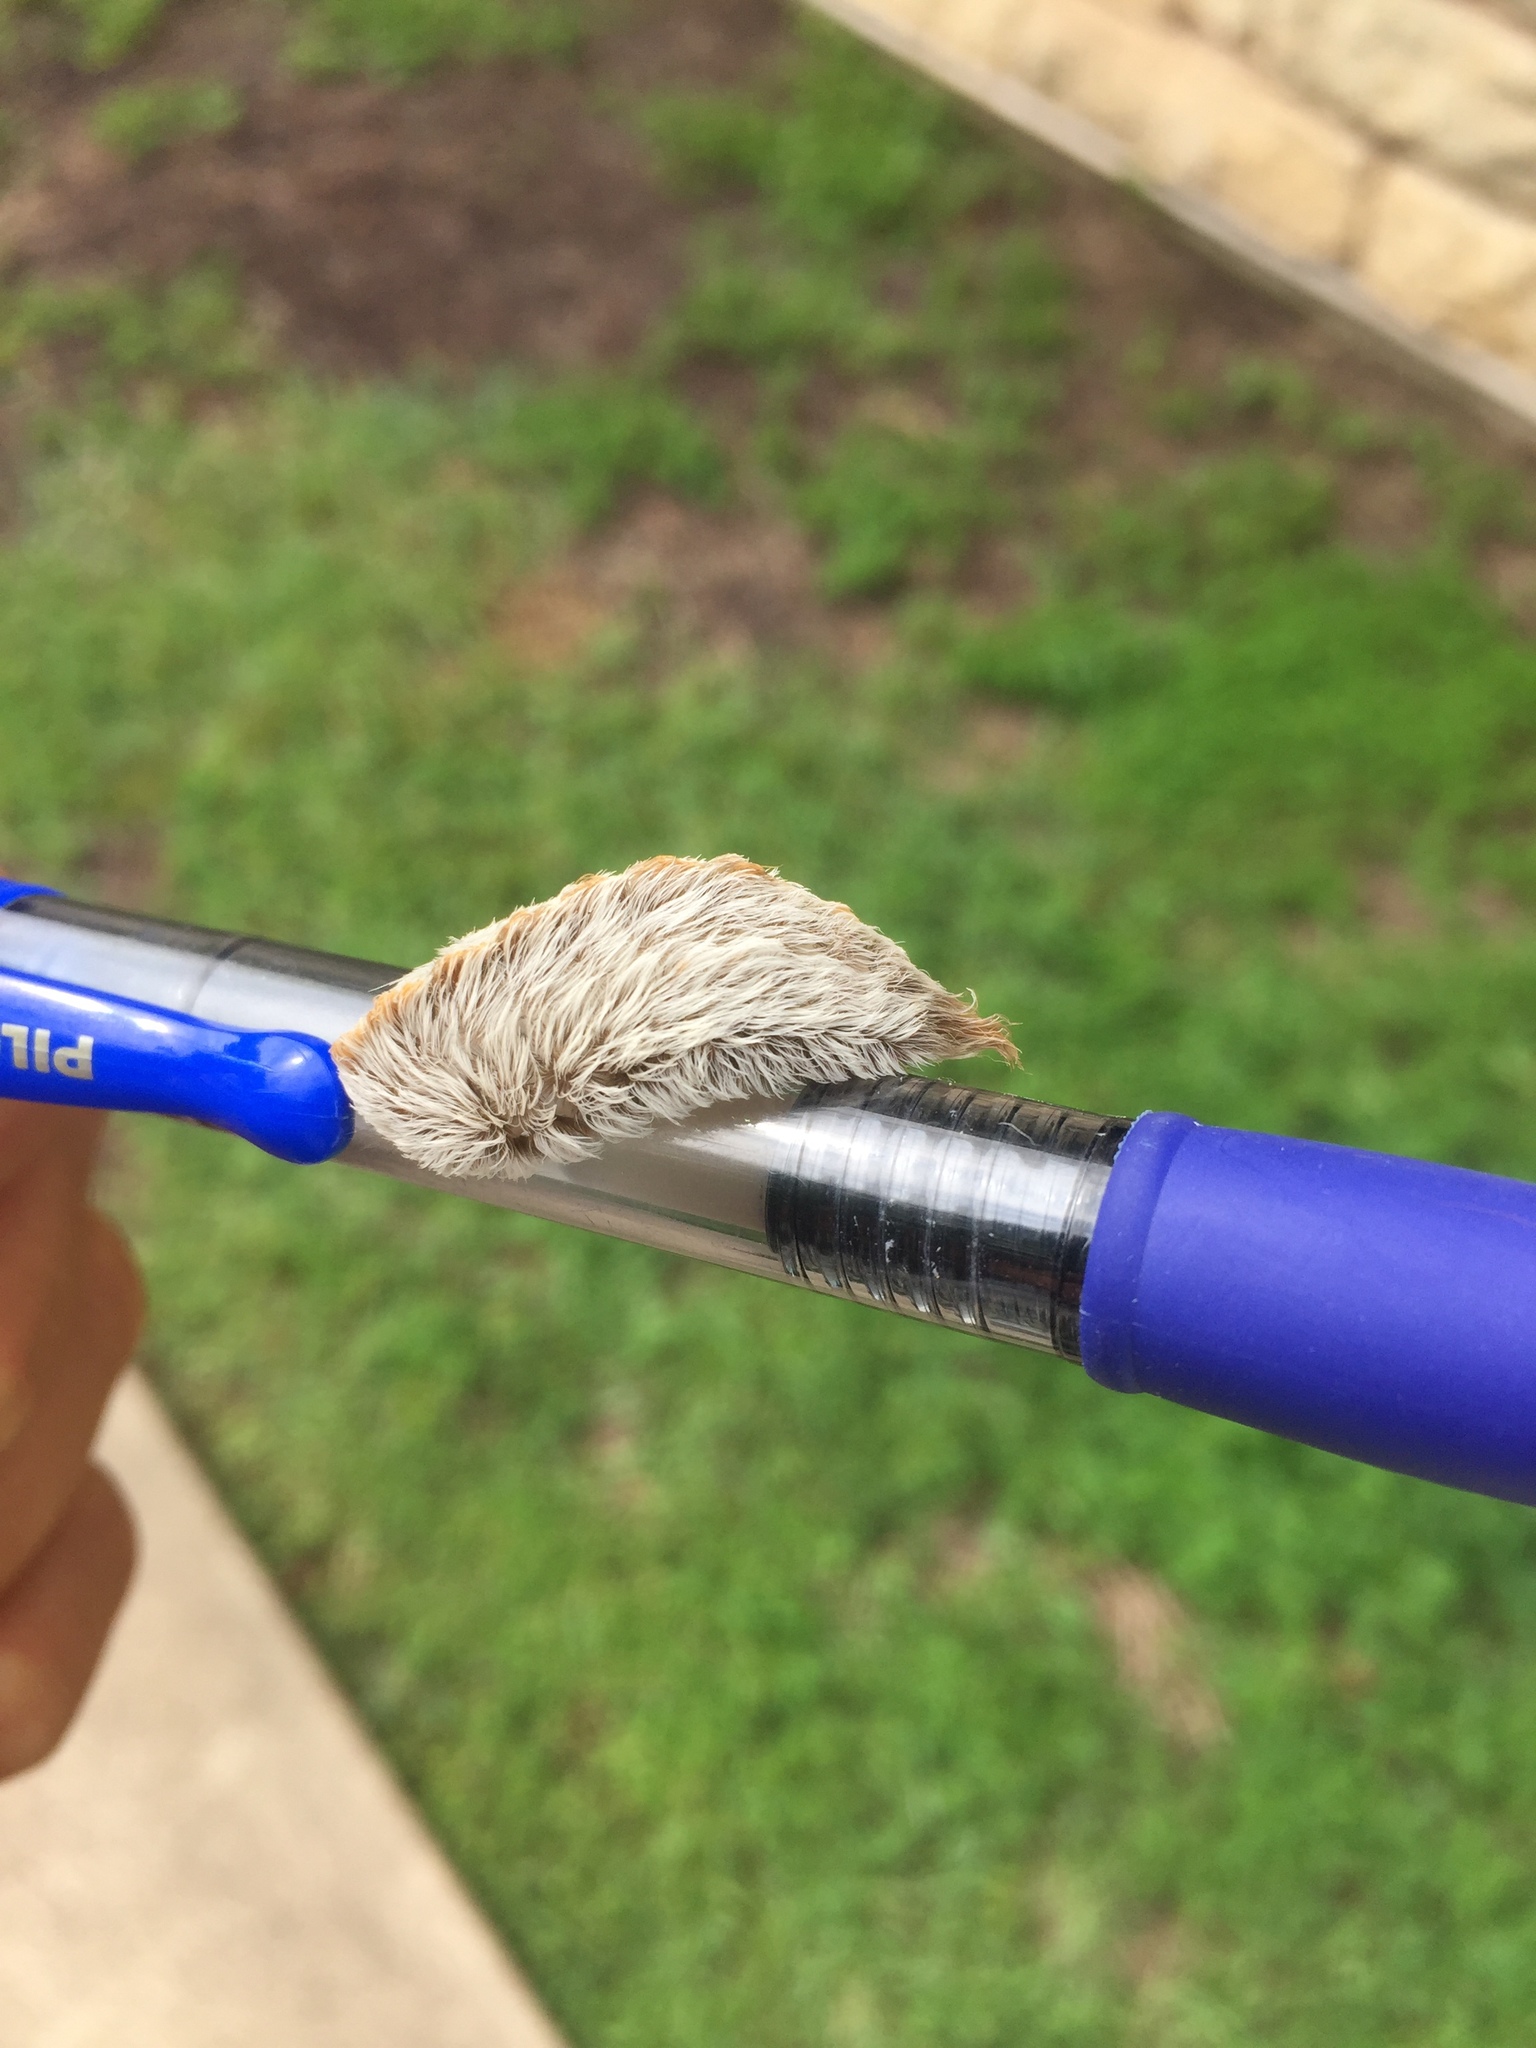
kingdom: Animalia
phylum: Arthropoda
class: Insecta
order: Lepidoptera
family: Megalopygidae
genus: Megalopyge
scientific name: Megalopyge opercularis
